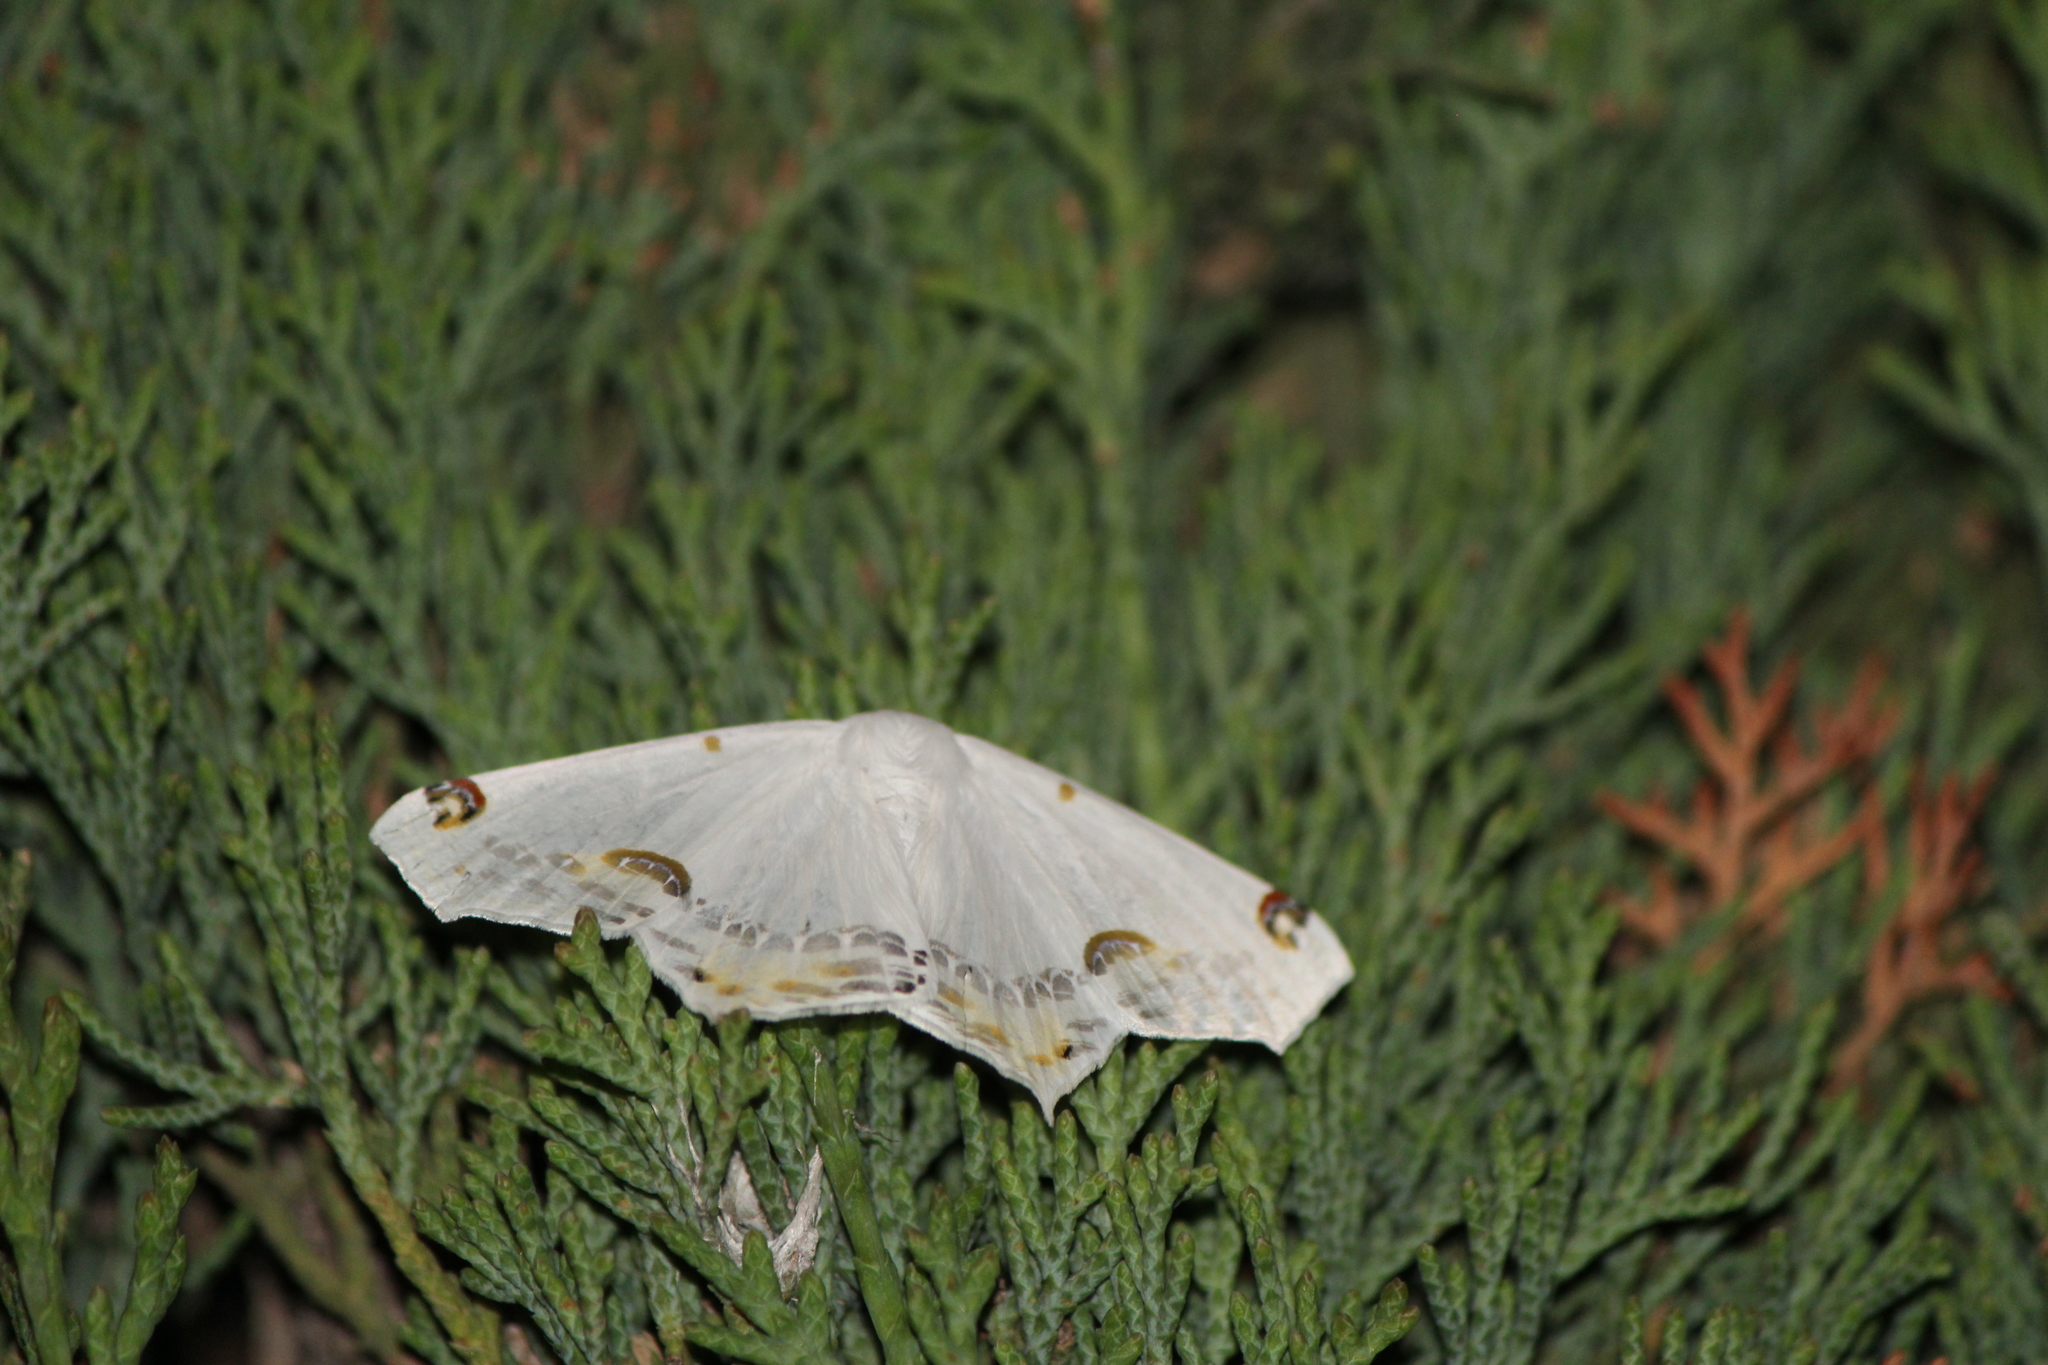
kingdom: Animalia
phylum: Arthropoda
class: Insecta
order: Lepidoptera
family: Geometridae
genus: Sericoptera
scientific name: Sericoptera mahometaria
